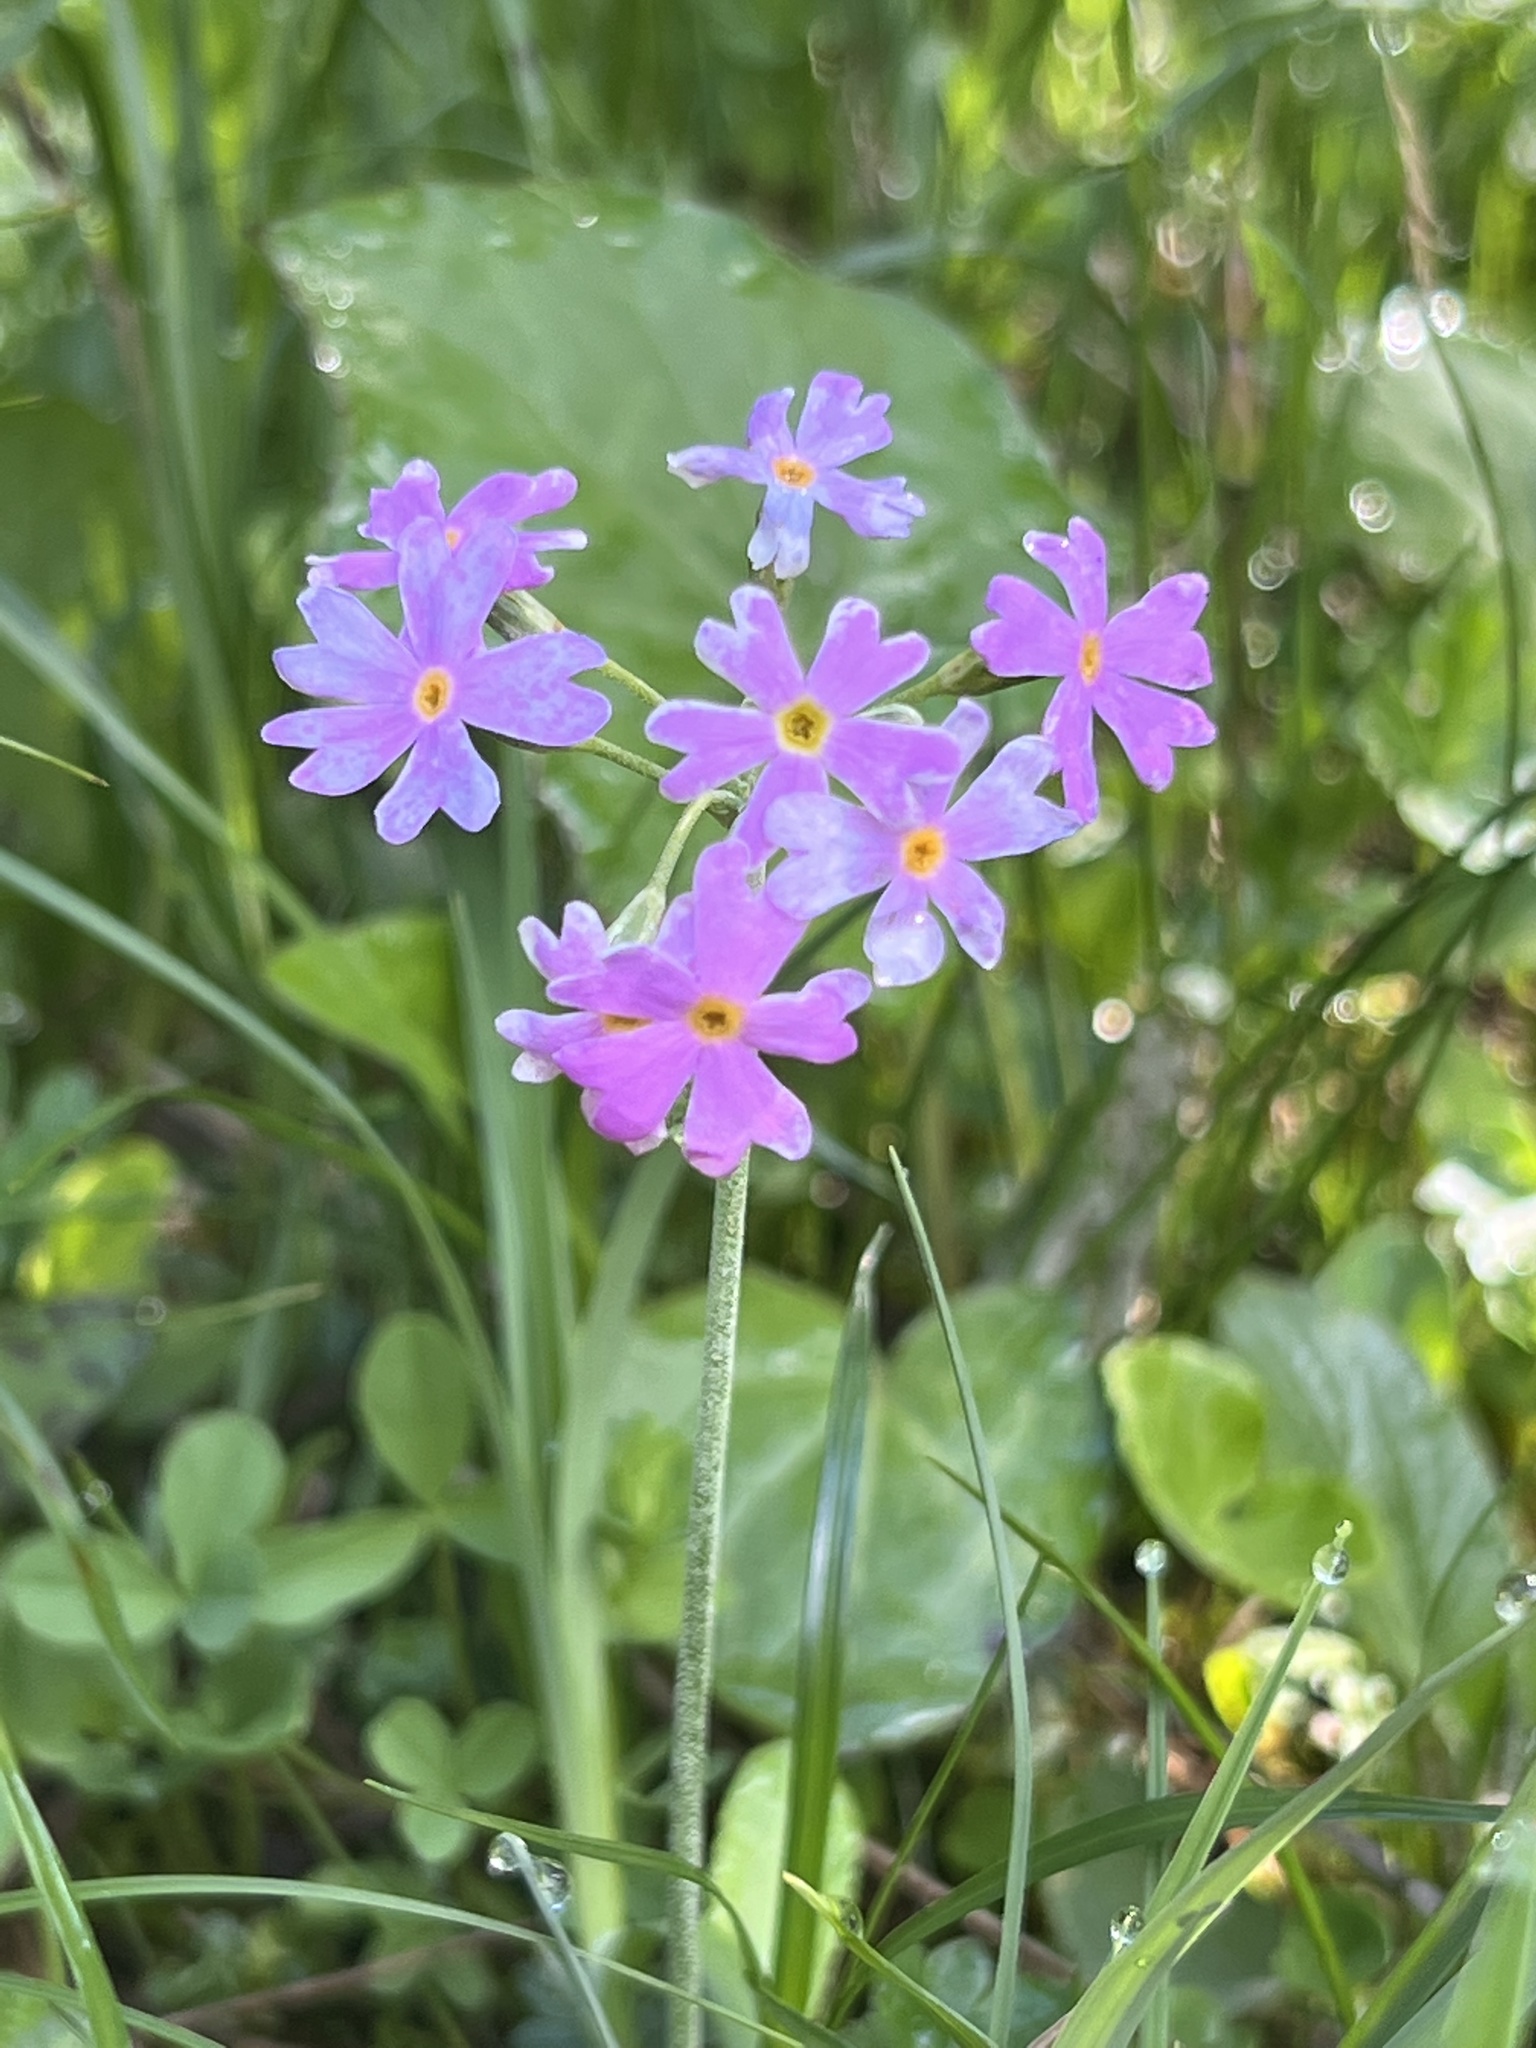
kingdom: Plantae
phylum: Tracheophyta
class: Magnoliopsida
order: Ericales
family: Primulaceae
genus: Primula
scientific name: Primula farinosa
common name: Bird's-eye primrose
